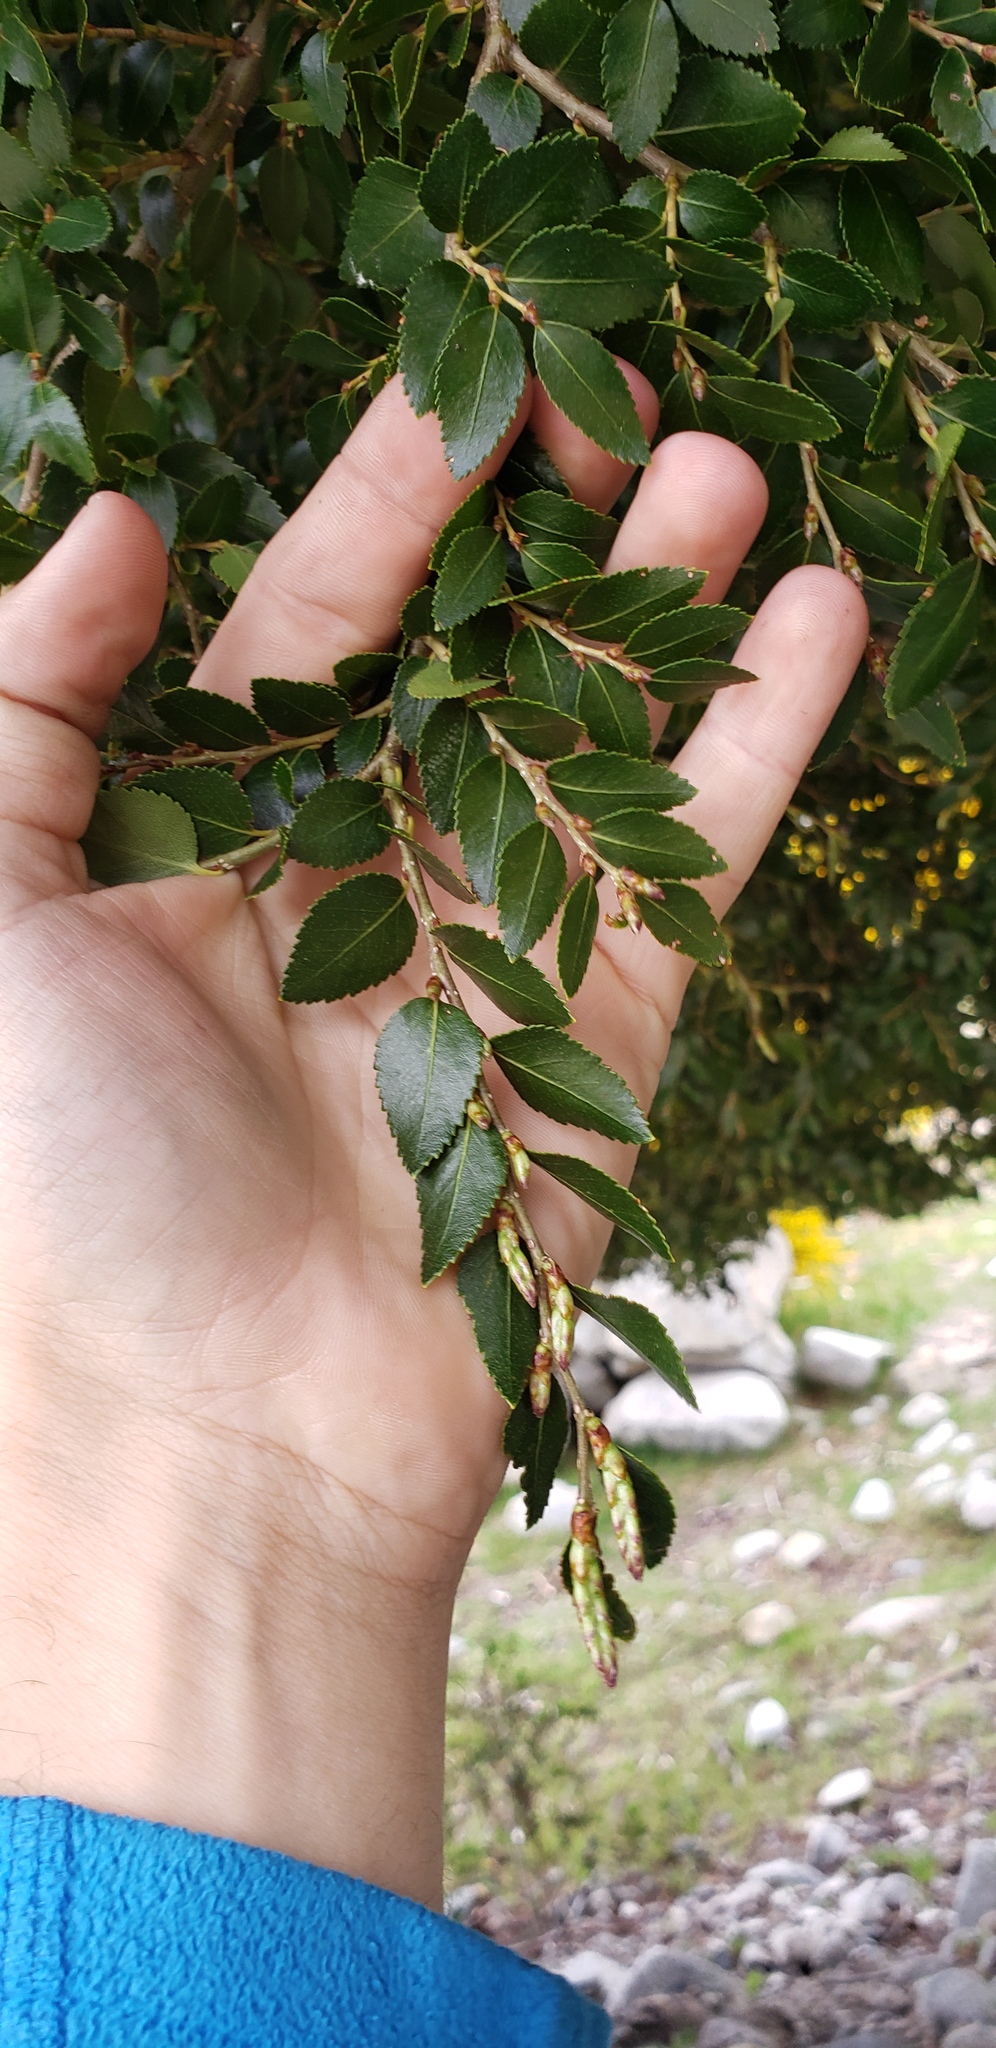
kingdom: Plantae
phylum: Tracheophyta
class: Magnoliopsida
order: Fagales
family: Nothofagaceae
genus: Nothofagus
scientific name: Nothofagus dombeyi
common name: Coigue
